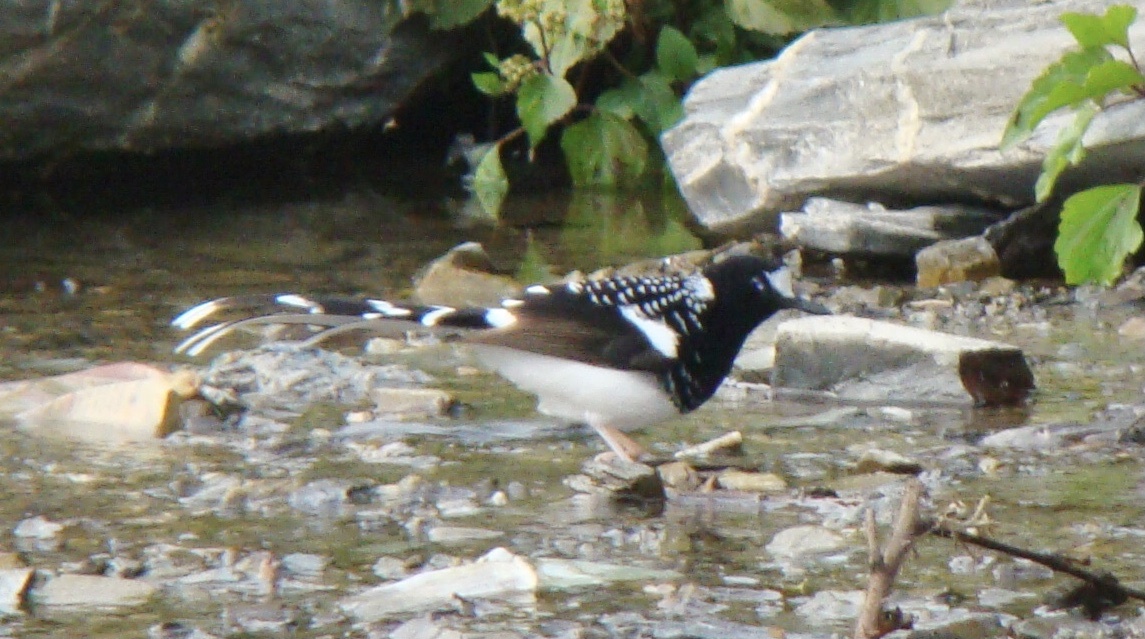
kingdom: Animalia
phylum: Chordata
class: Aves
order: Passeriformes
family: Muscicapidae
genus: Enicurus
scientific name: Enicurus maculatus
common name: Spotted forktail
